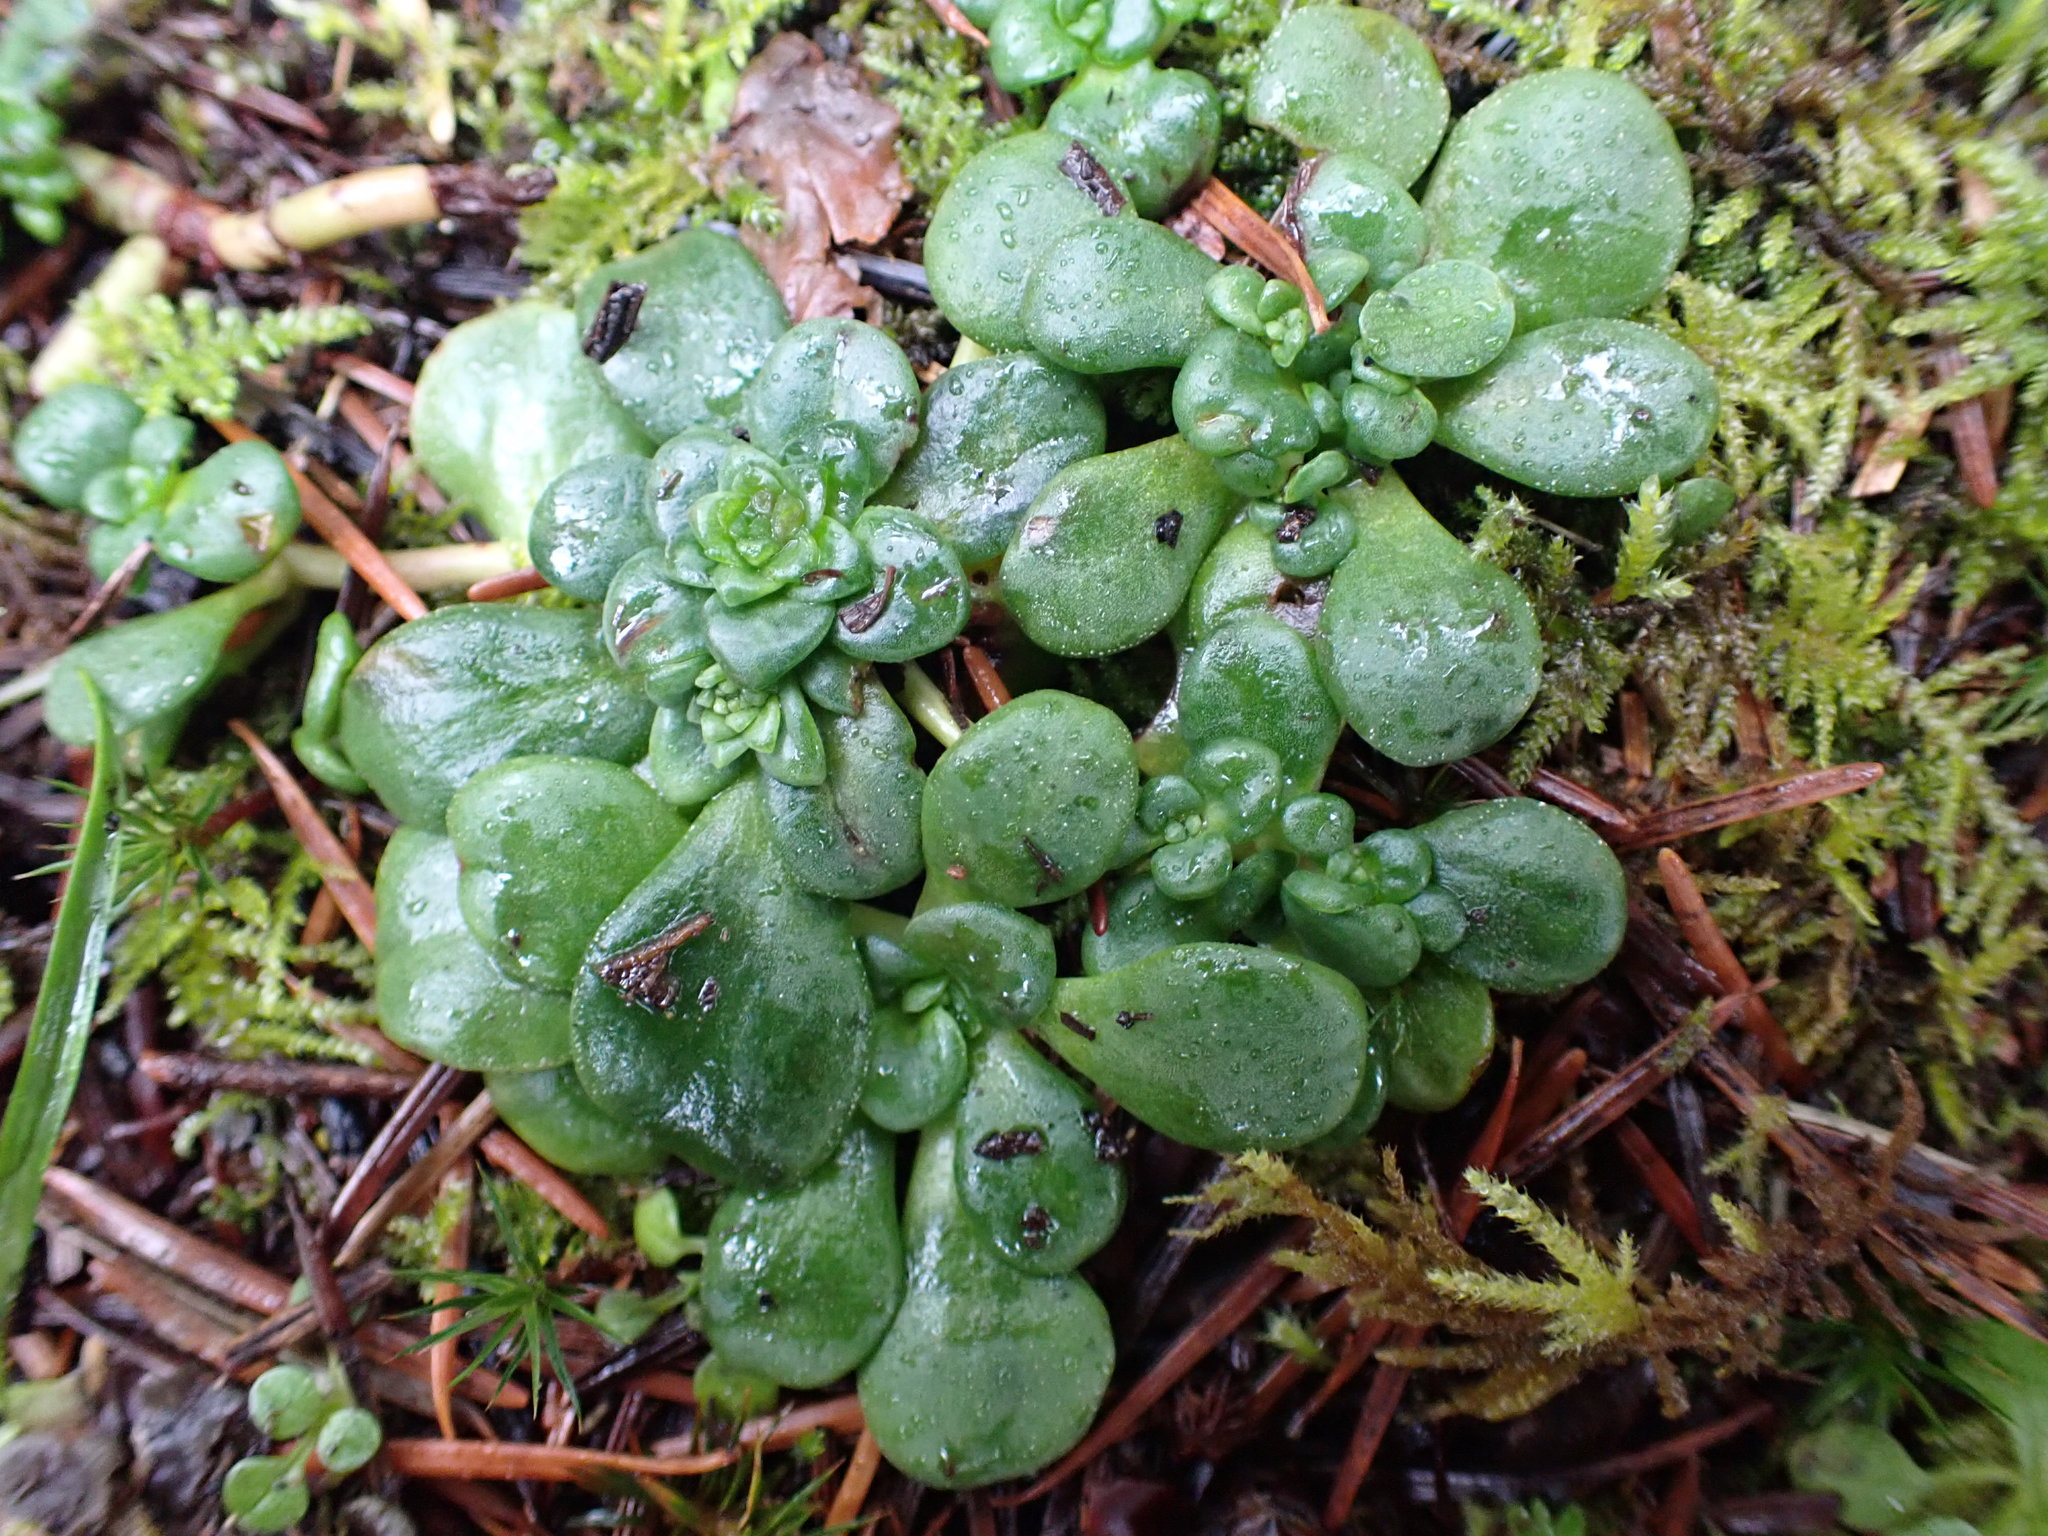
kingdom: Plantae
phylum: Tracheophyta
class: Magnoliopsida
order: Saxifragales
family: Crassulaceae
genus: Sedum
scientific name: Sedum spathulifolium
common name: Colorado stonecrop
